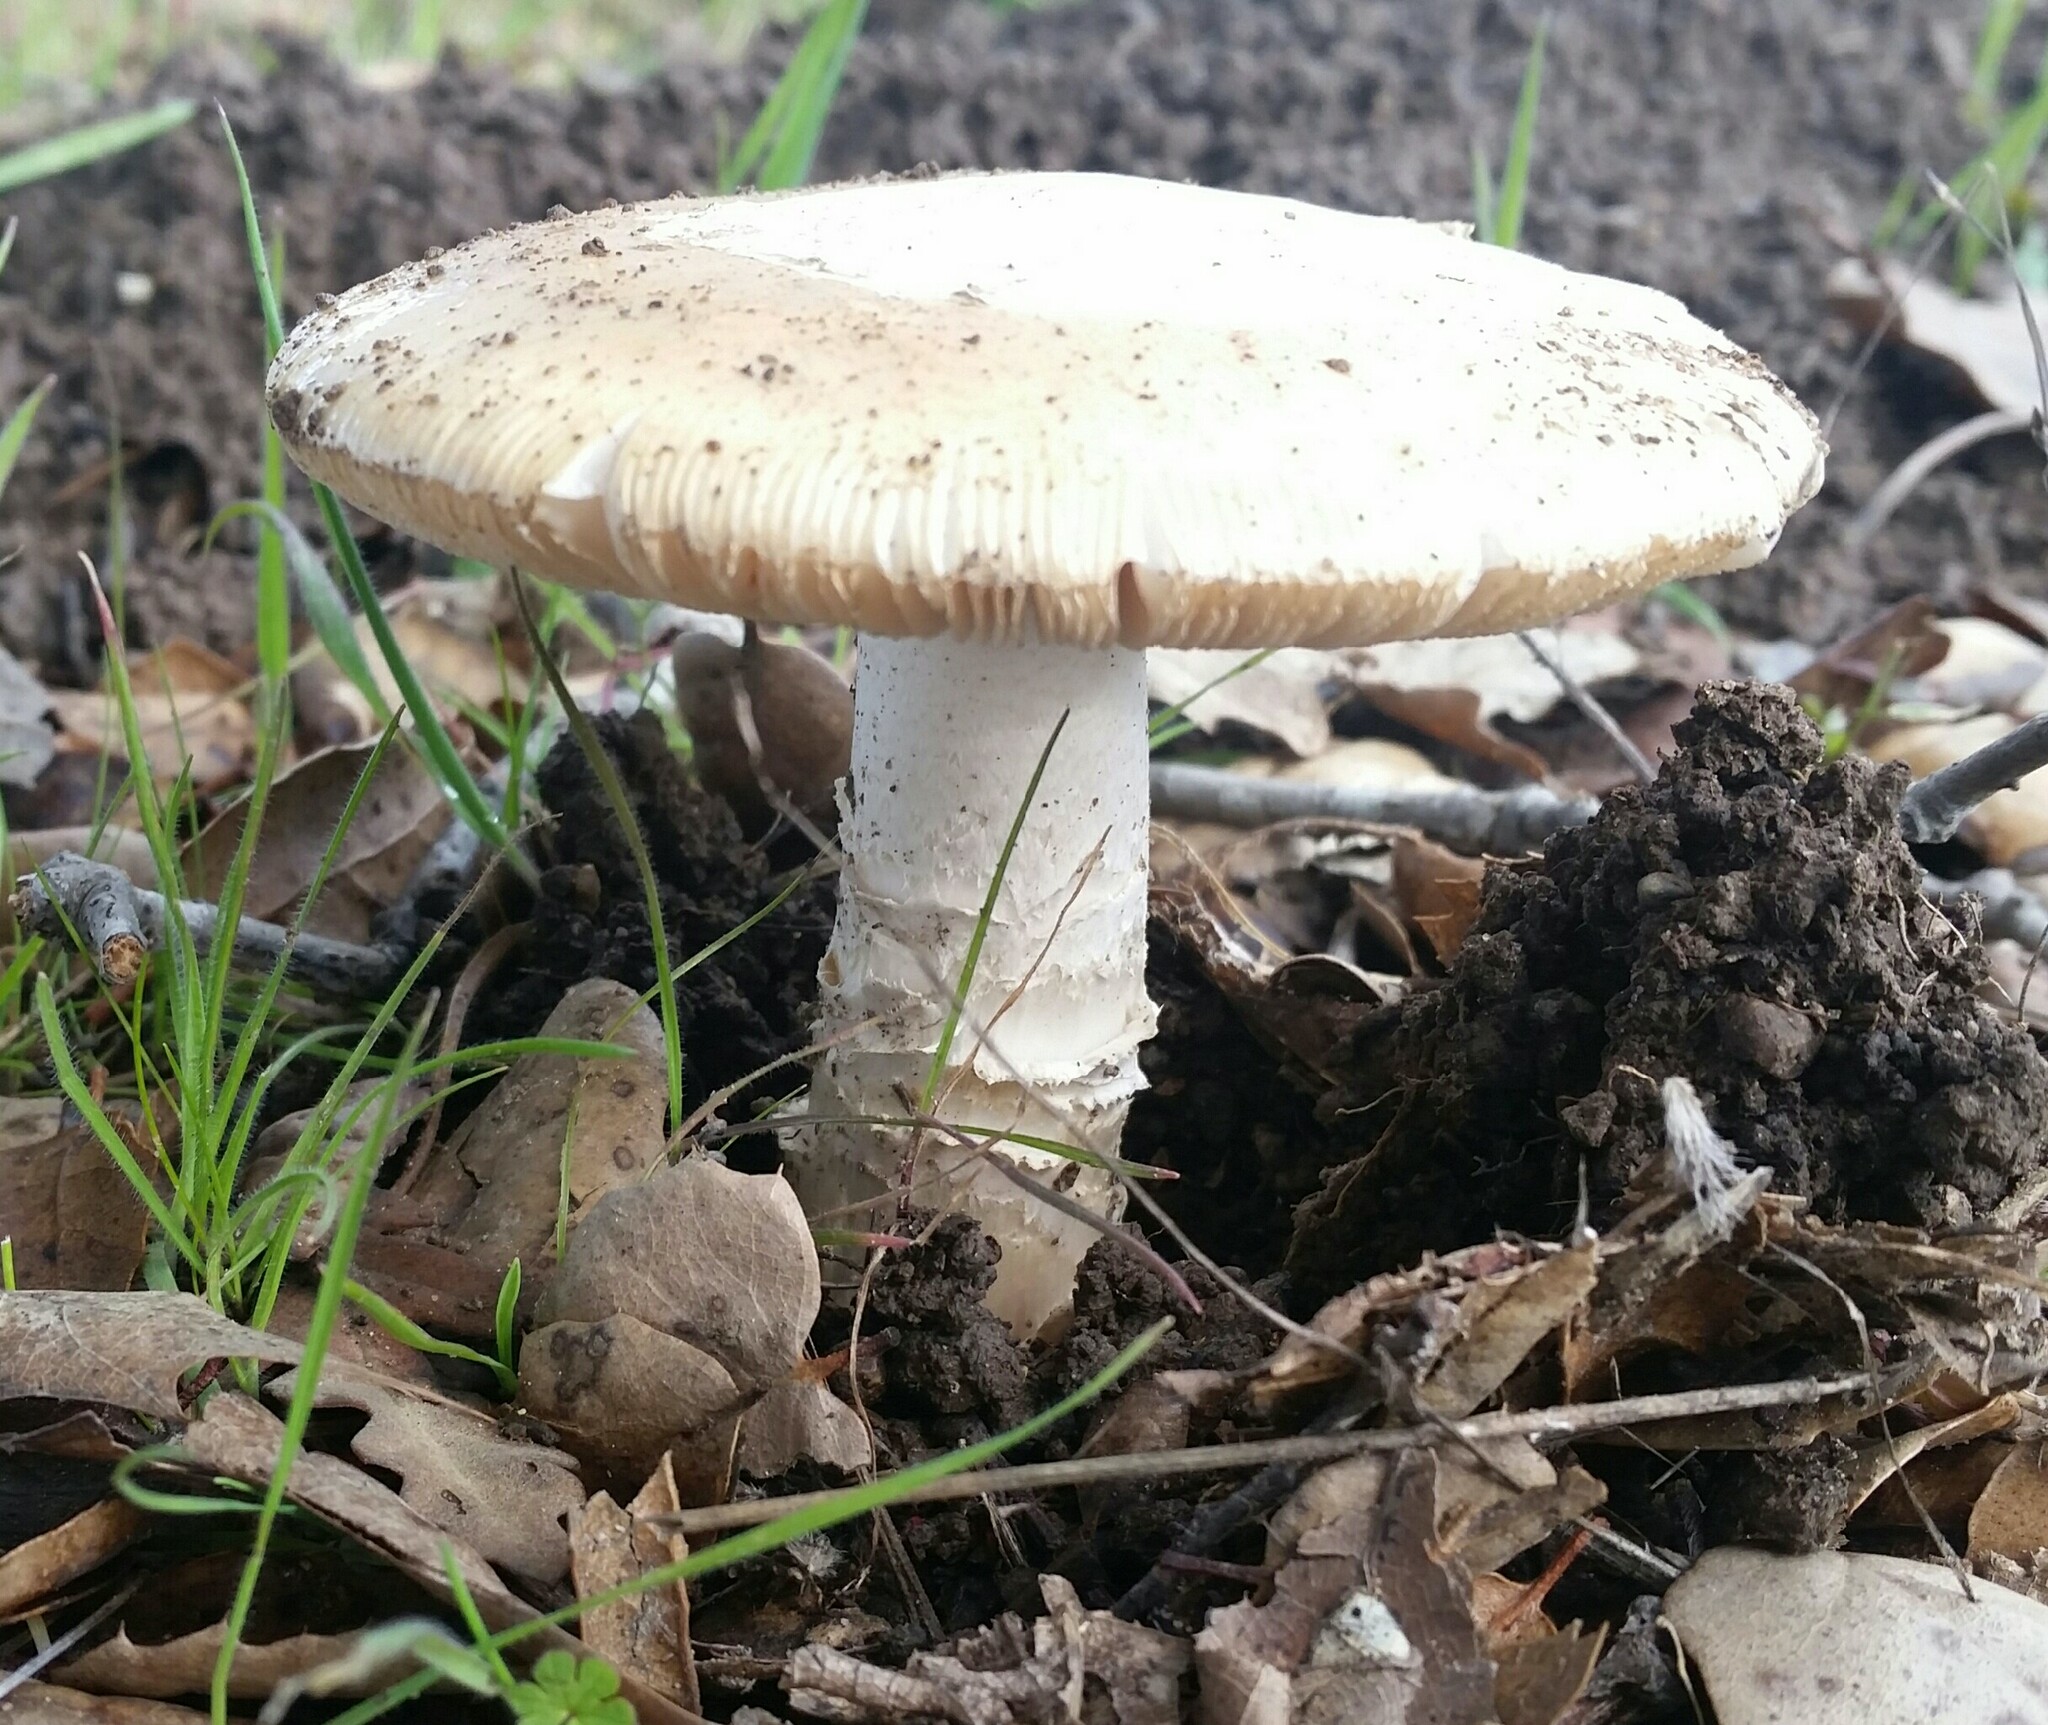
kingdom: Fungi
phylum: Basidiomycota
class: Agaricomycetes
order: Agaricales
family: Amanitaceae
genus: Amanita
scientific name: Amanita velosa
